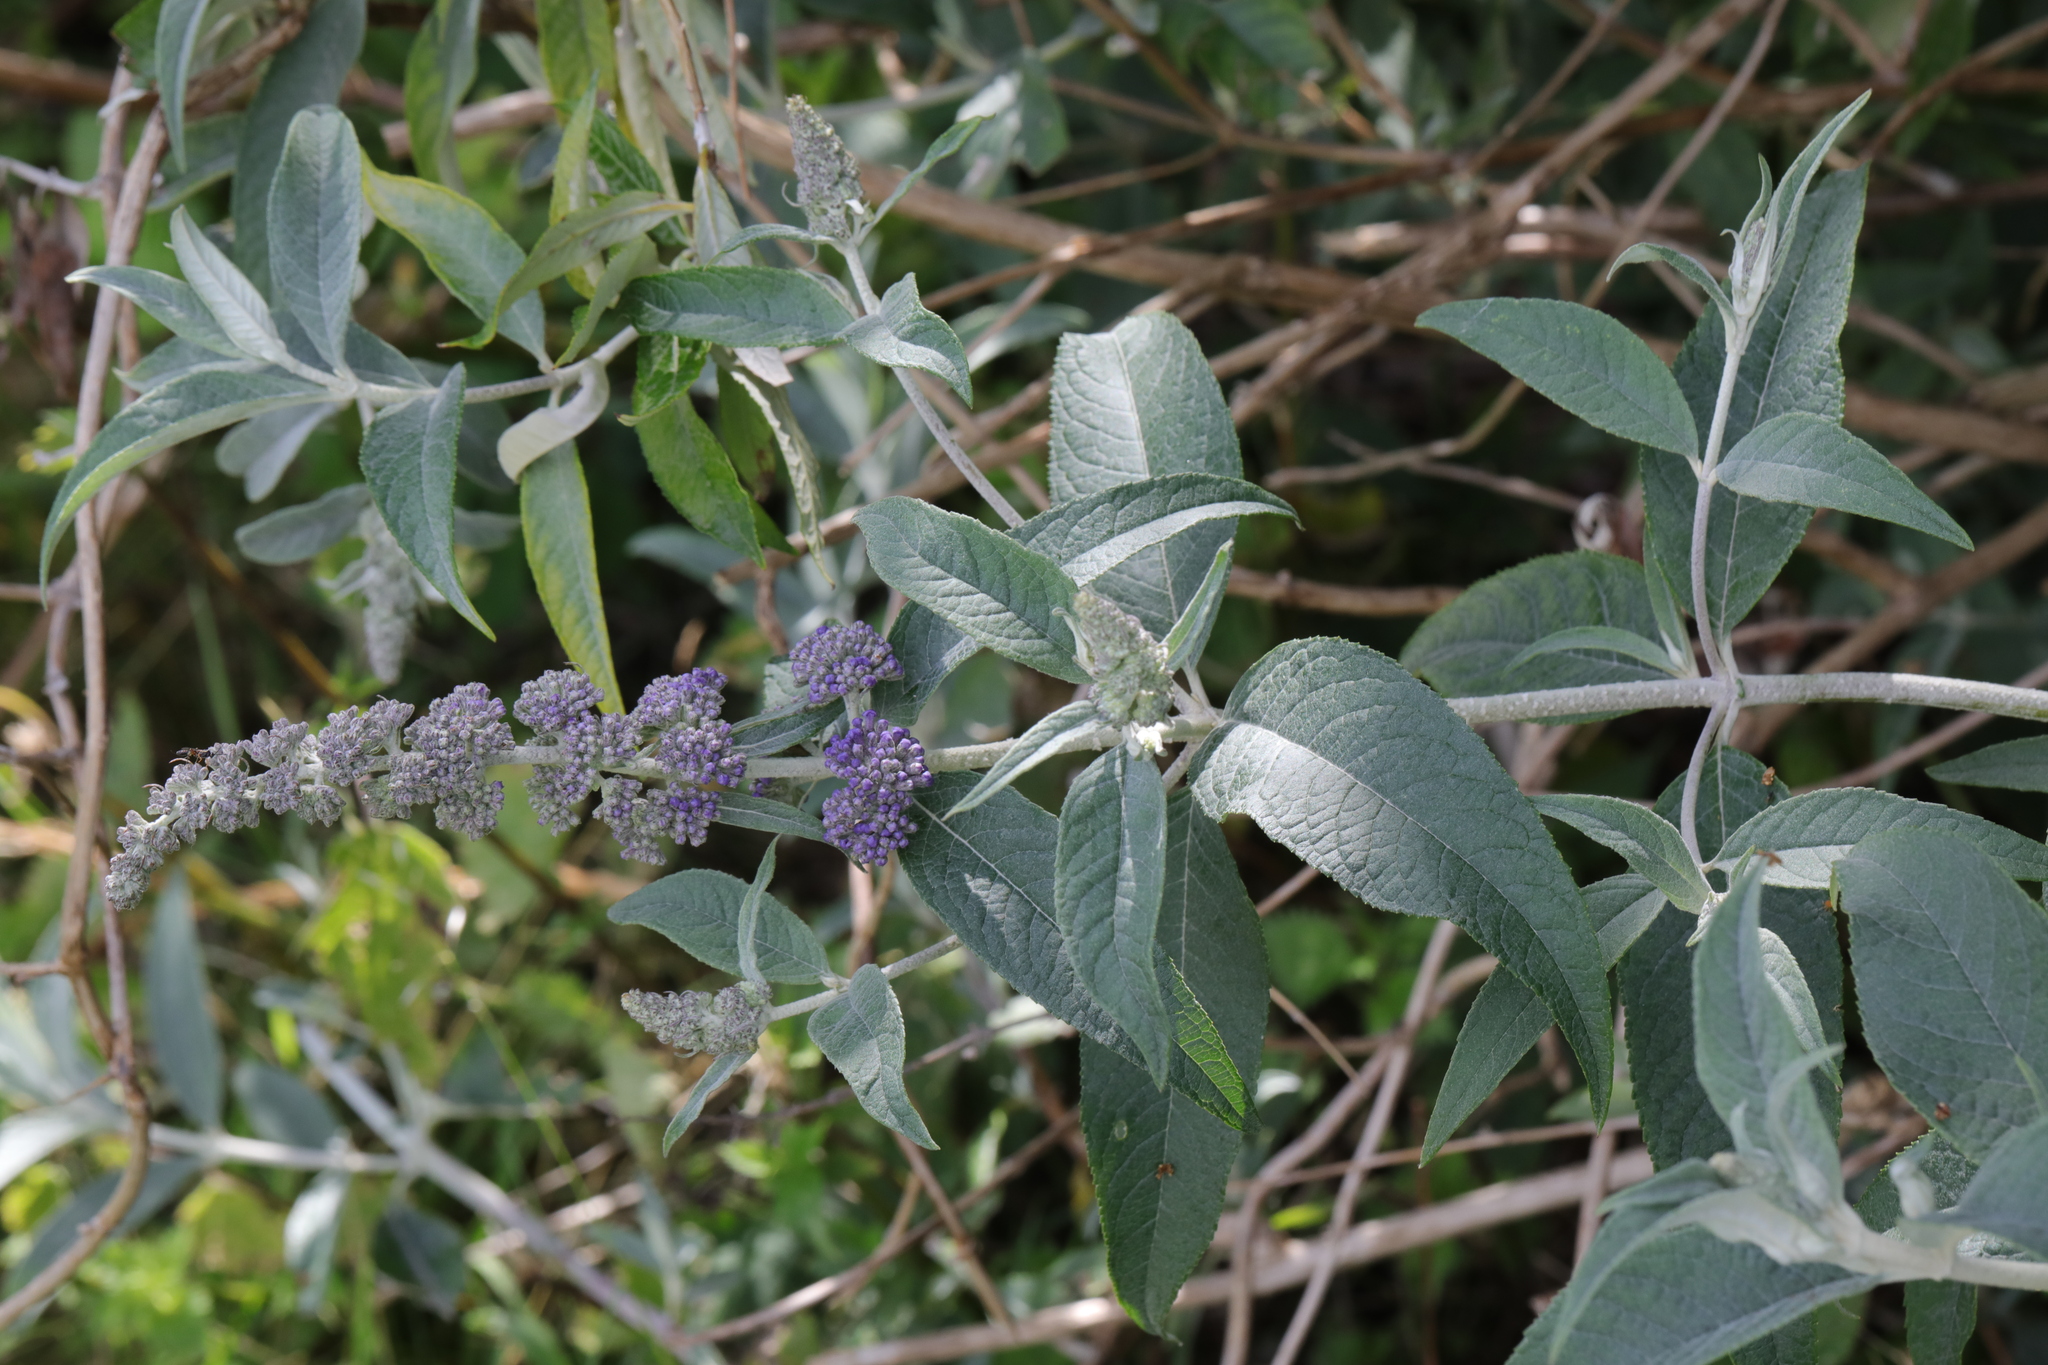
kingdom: Plantae
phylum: Tracheophyta
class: Magnoliopsida
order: Lamiales
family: Scrophulariaceae
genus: Buddleja
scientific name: Buddleja davidii
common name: Butterfly-bush
